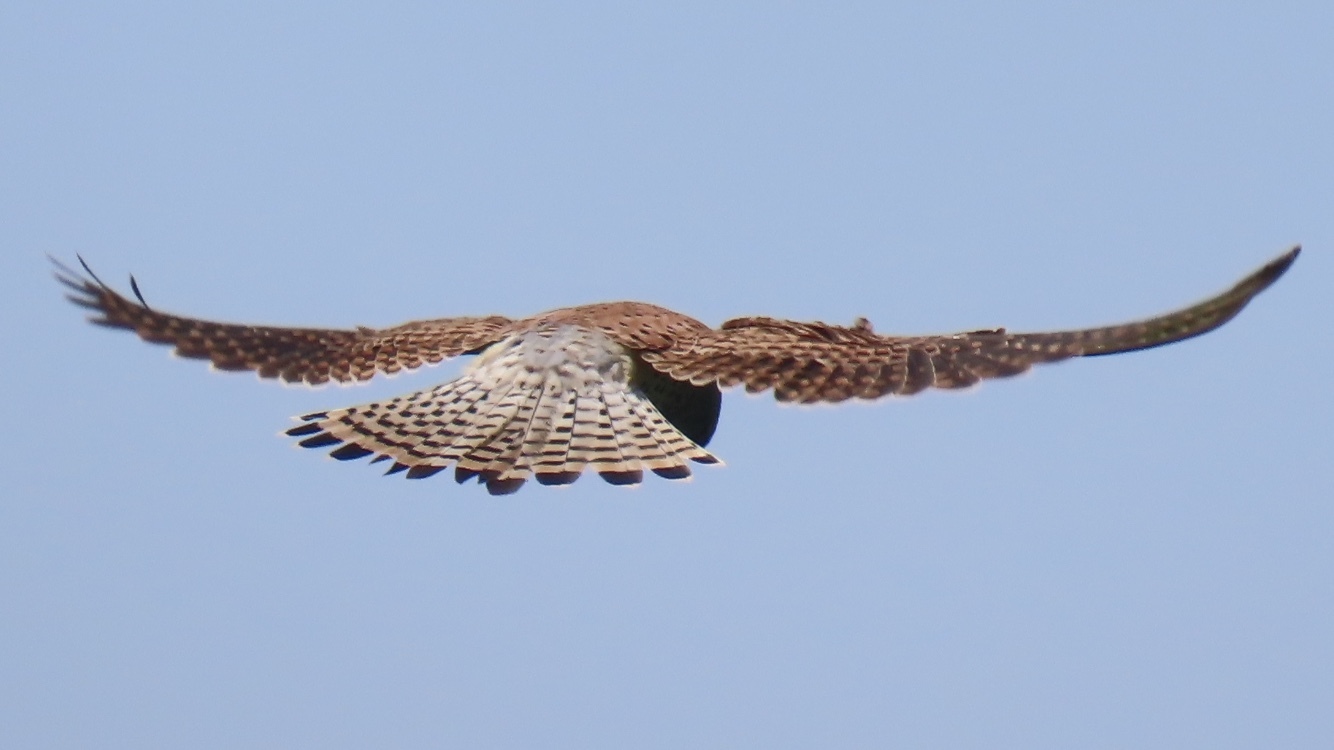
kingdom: Animalia
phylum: Chordata
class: Aves
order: Falconiformes
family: Falconidae
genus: Falco
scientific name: Falco tinnunculus
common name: Common kestrel
